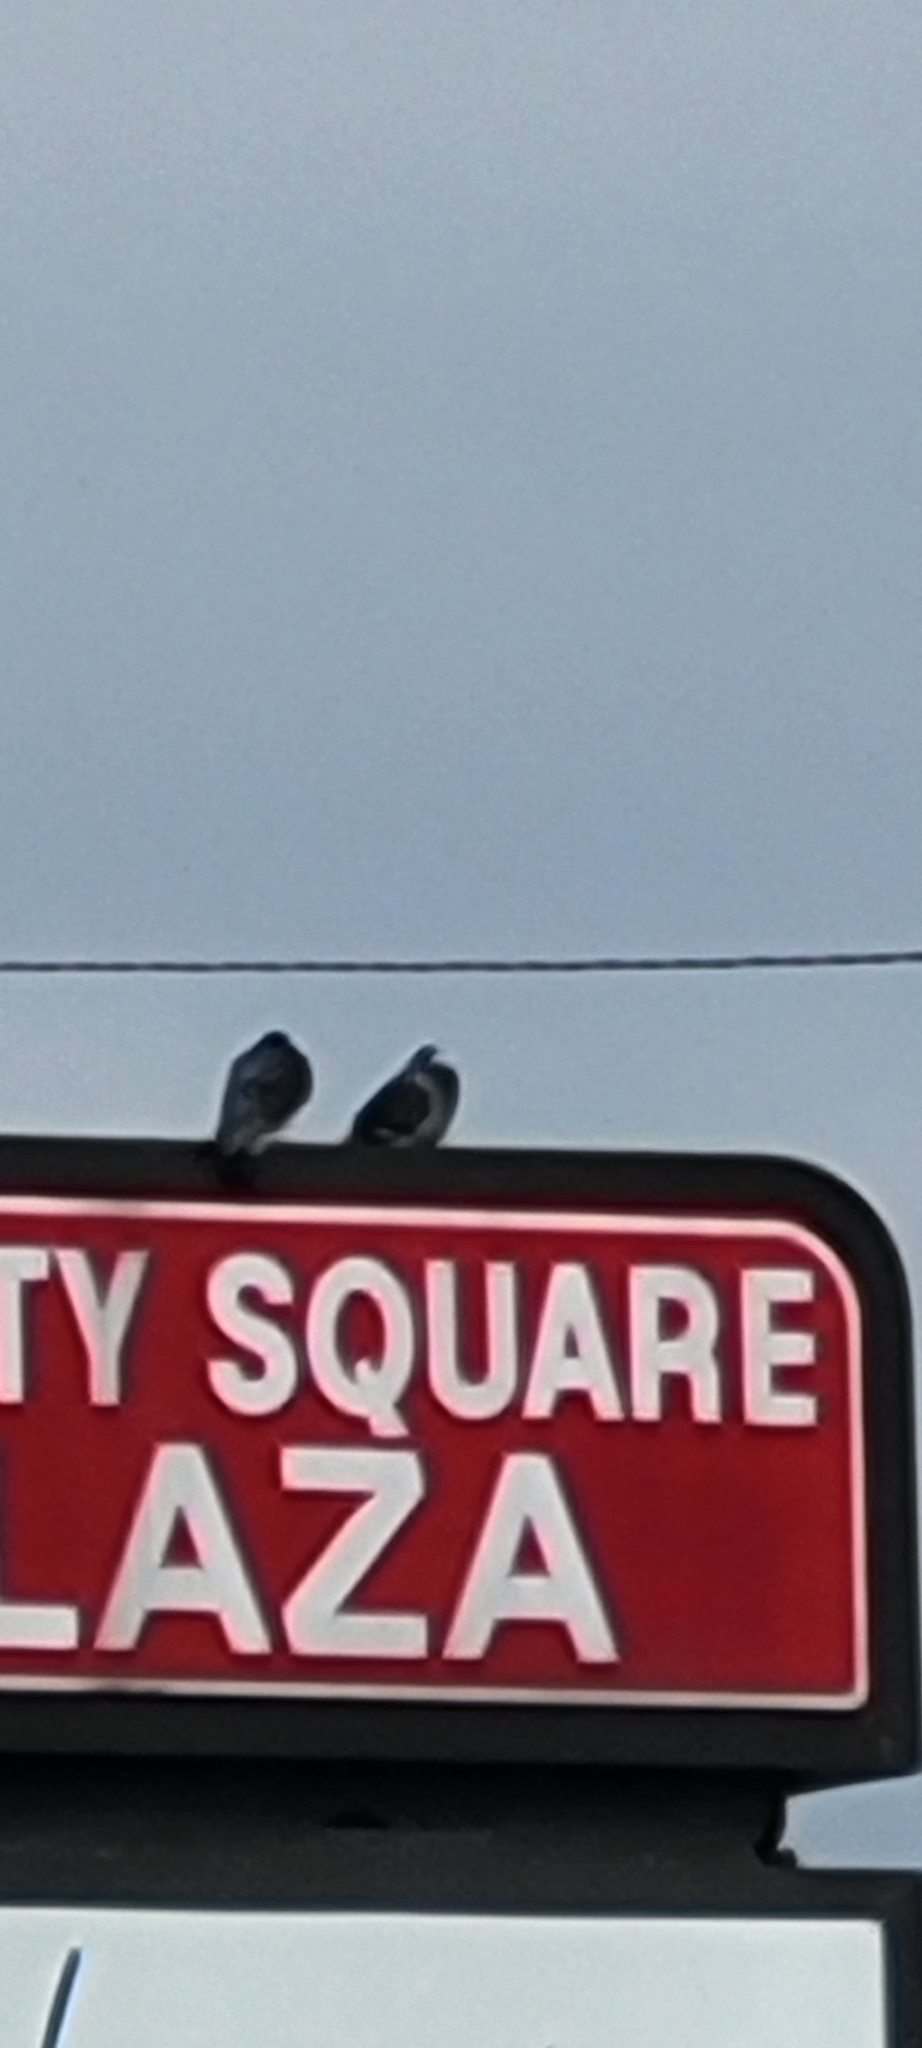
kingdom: Animalia
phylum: Chordata
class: Aves
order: Columbiformes
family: Columbidae
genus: Columba
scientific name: Columba livia
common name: Rock pigeon
